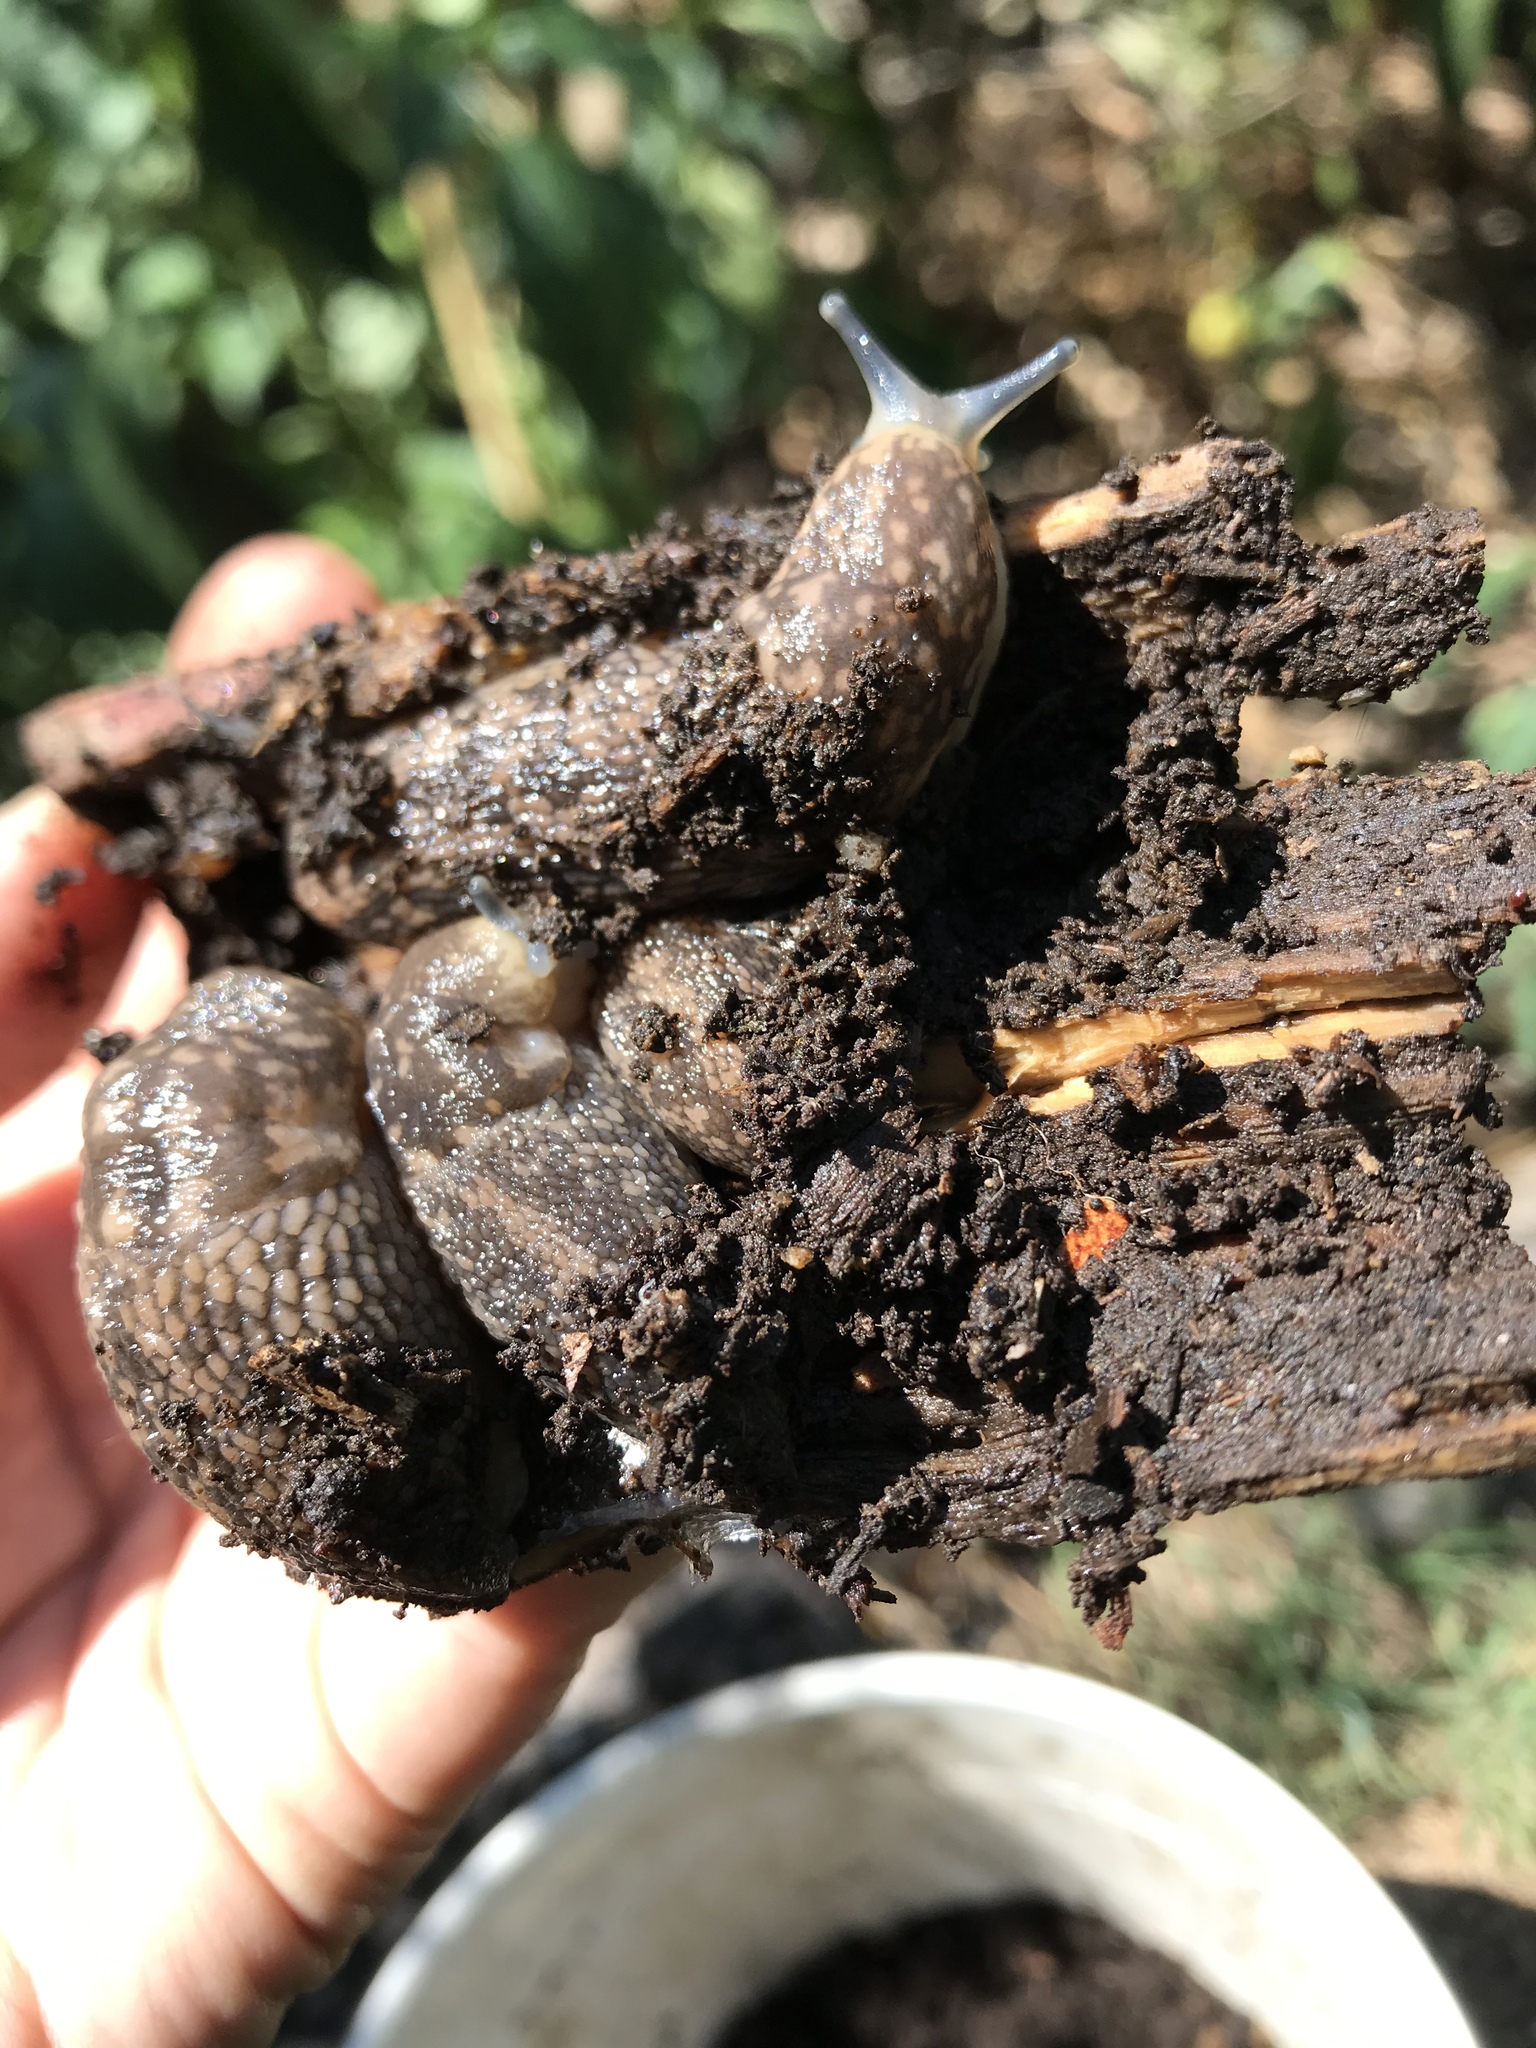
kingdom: Animalia
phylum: Mollusca
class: Gastropoda
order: Stylommatophora
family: Limacidae
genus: Limacus
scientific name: Limacus flavus
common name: Yellow gardenslug
